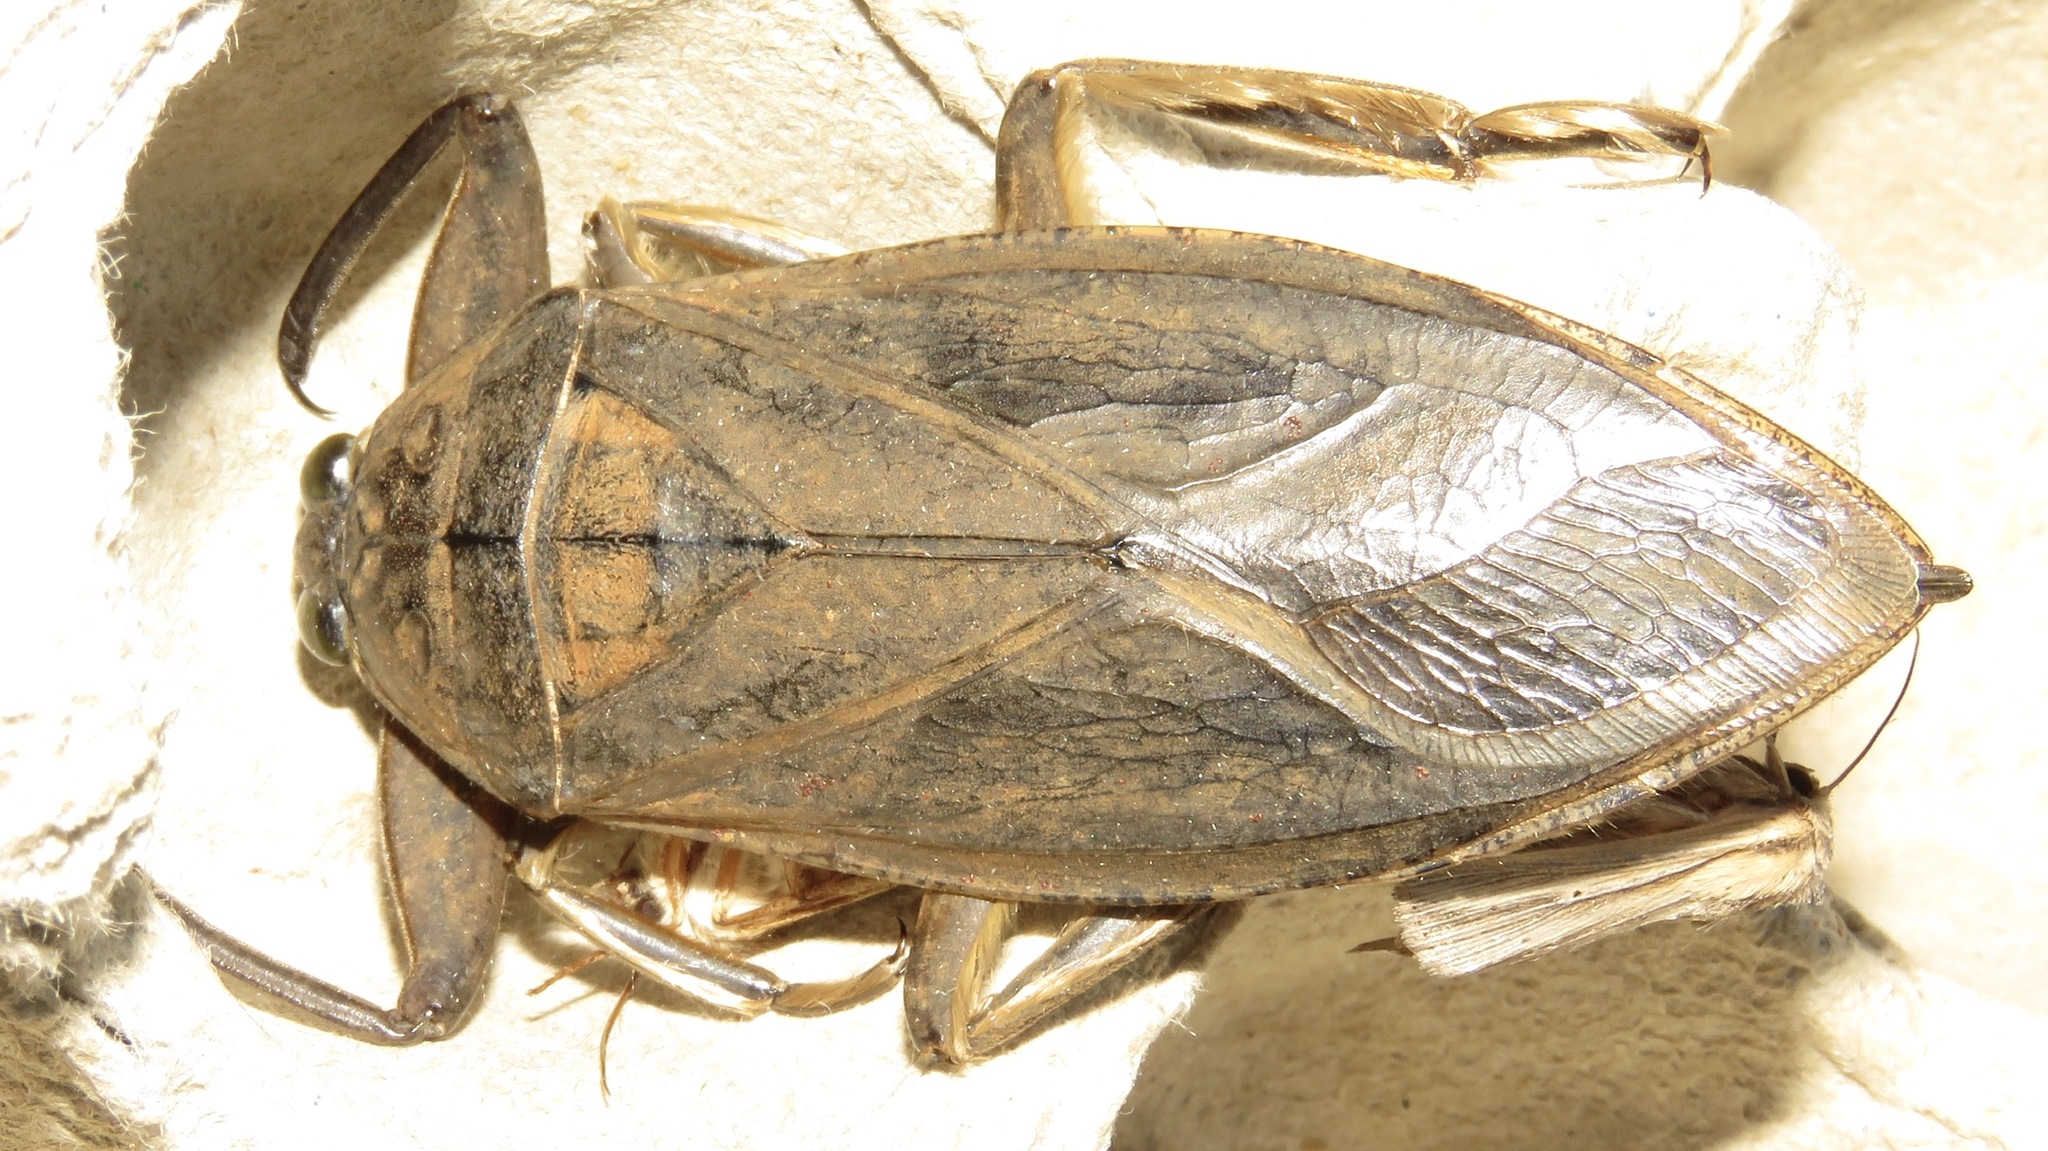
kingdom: Animalia
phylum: Arthropoda
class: Insecta
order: Hemiptera
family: Belostomatidae
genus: Lethocerus
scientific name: Lethocerus americanus
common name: Giant water bug
